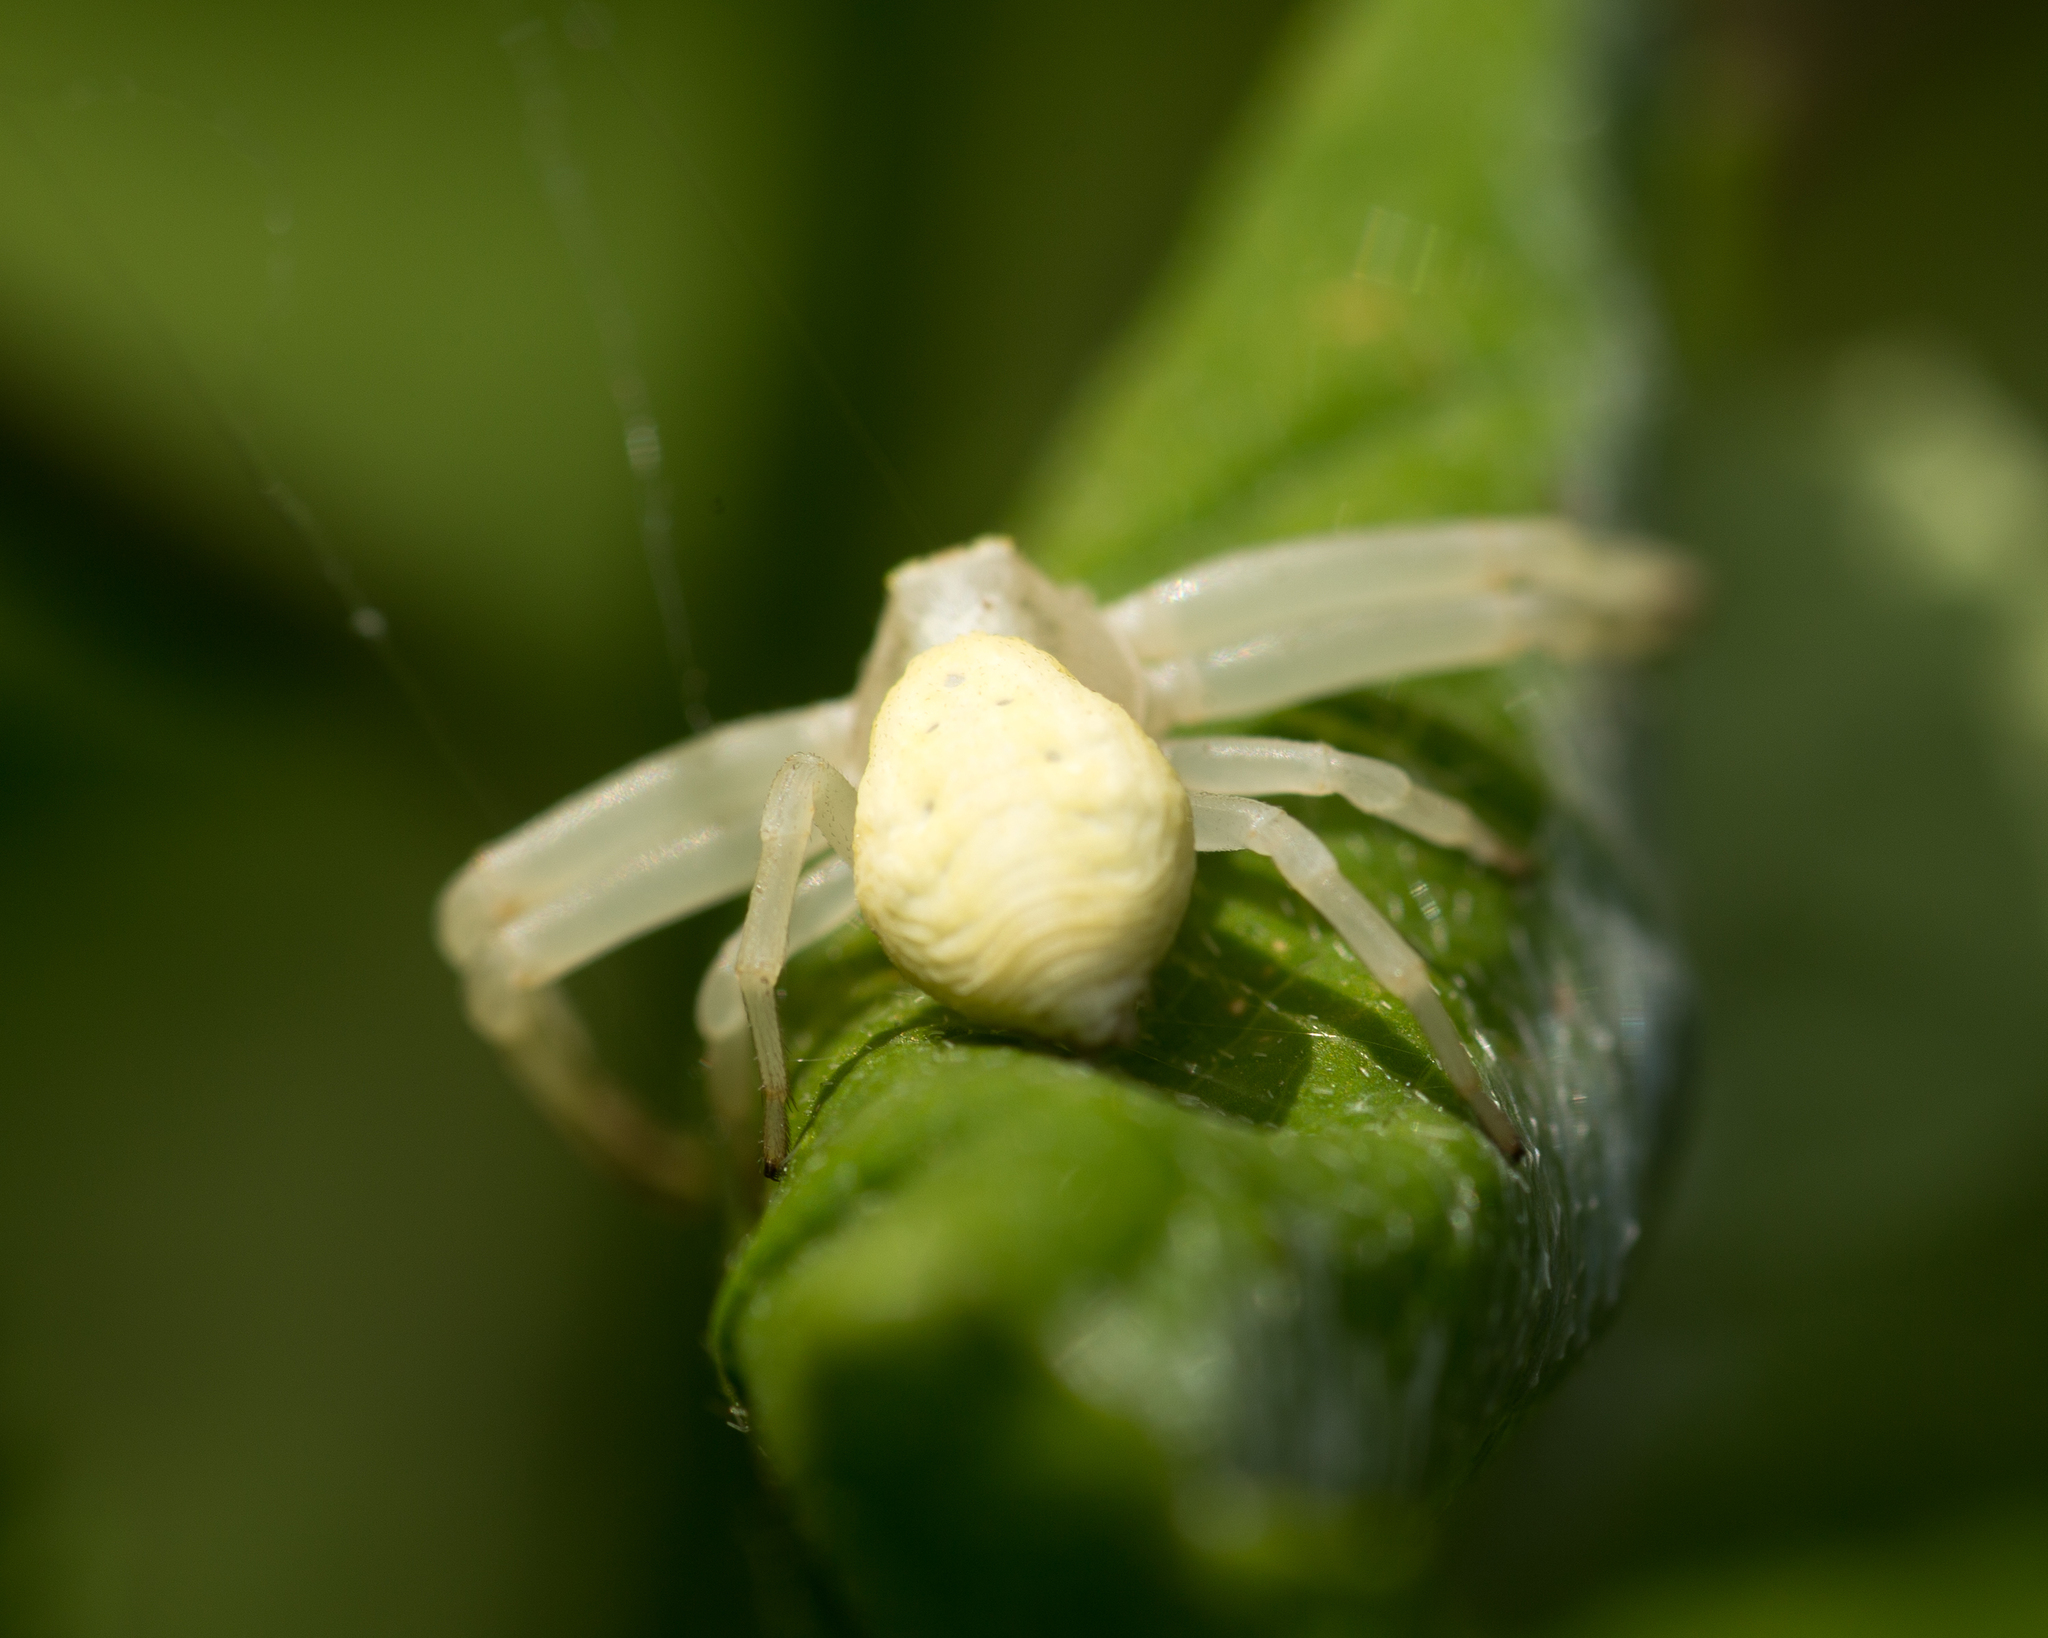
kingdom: Animalia
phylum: Arthropoda
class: Arachnida
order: Araneae
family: Thomisidae
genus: Misumena
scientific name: Misumena vatia
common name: Goldenrod crab spider
